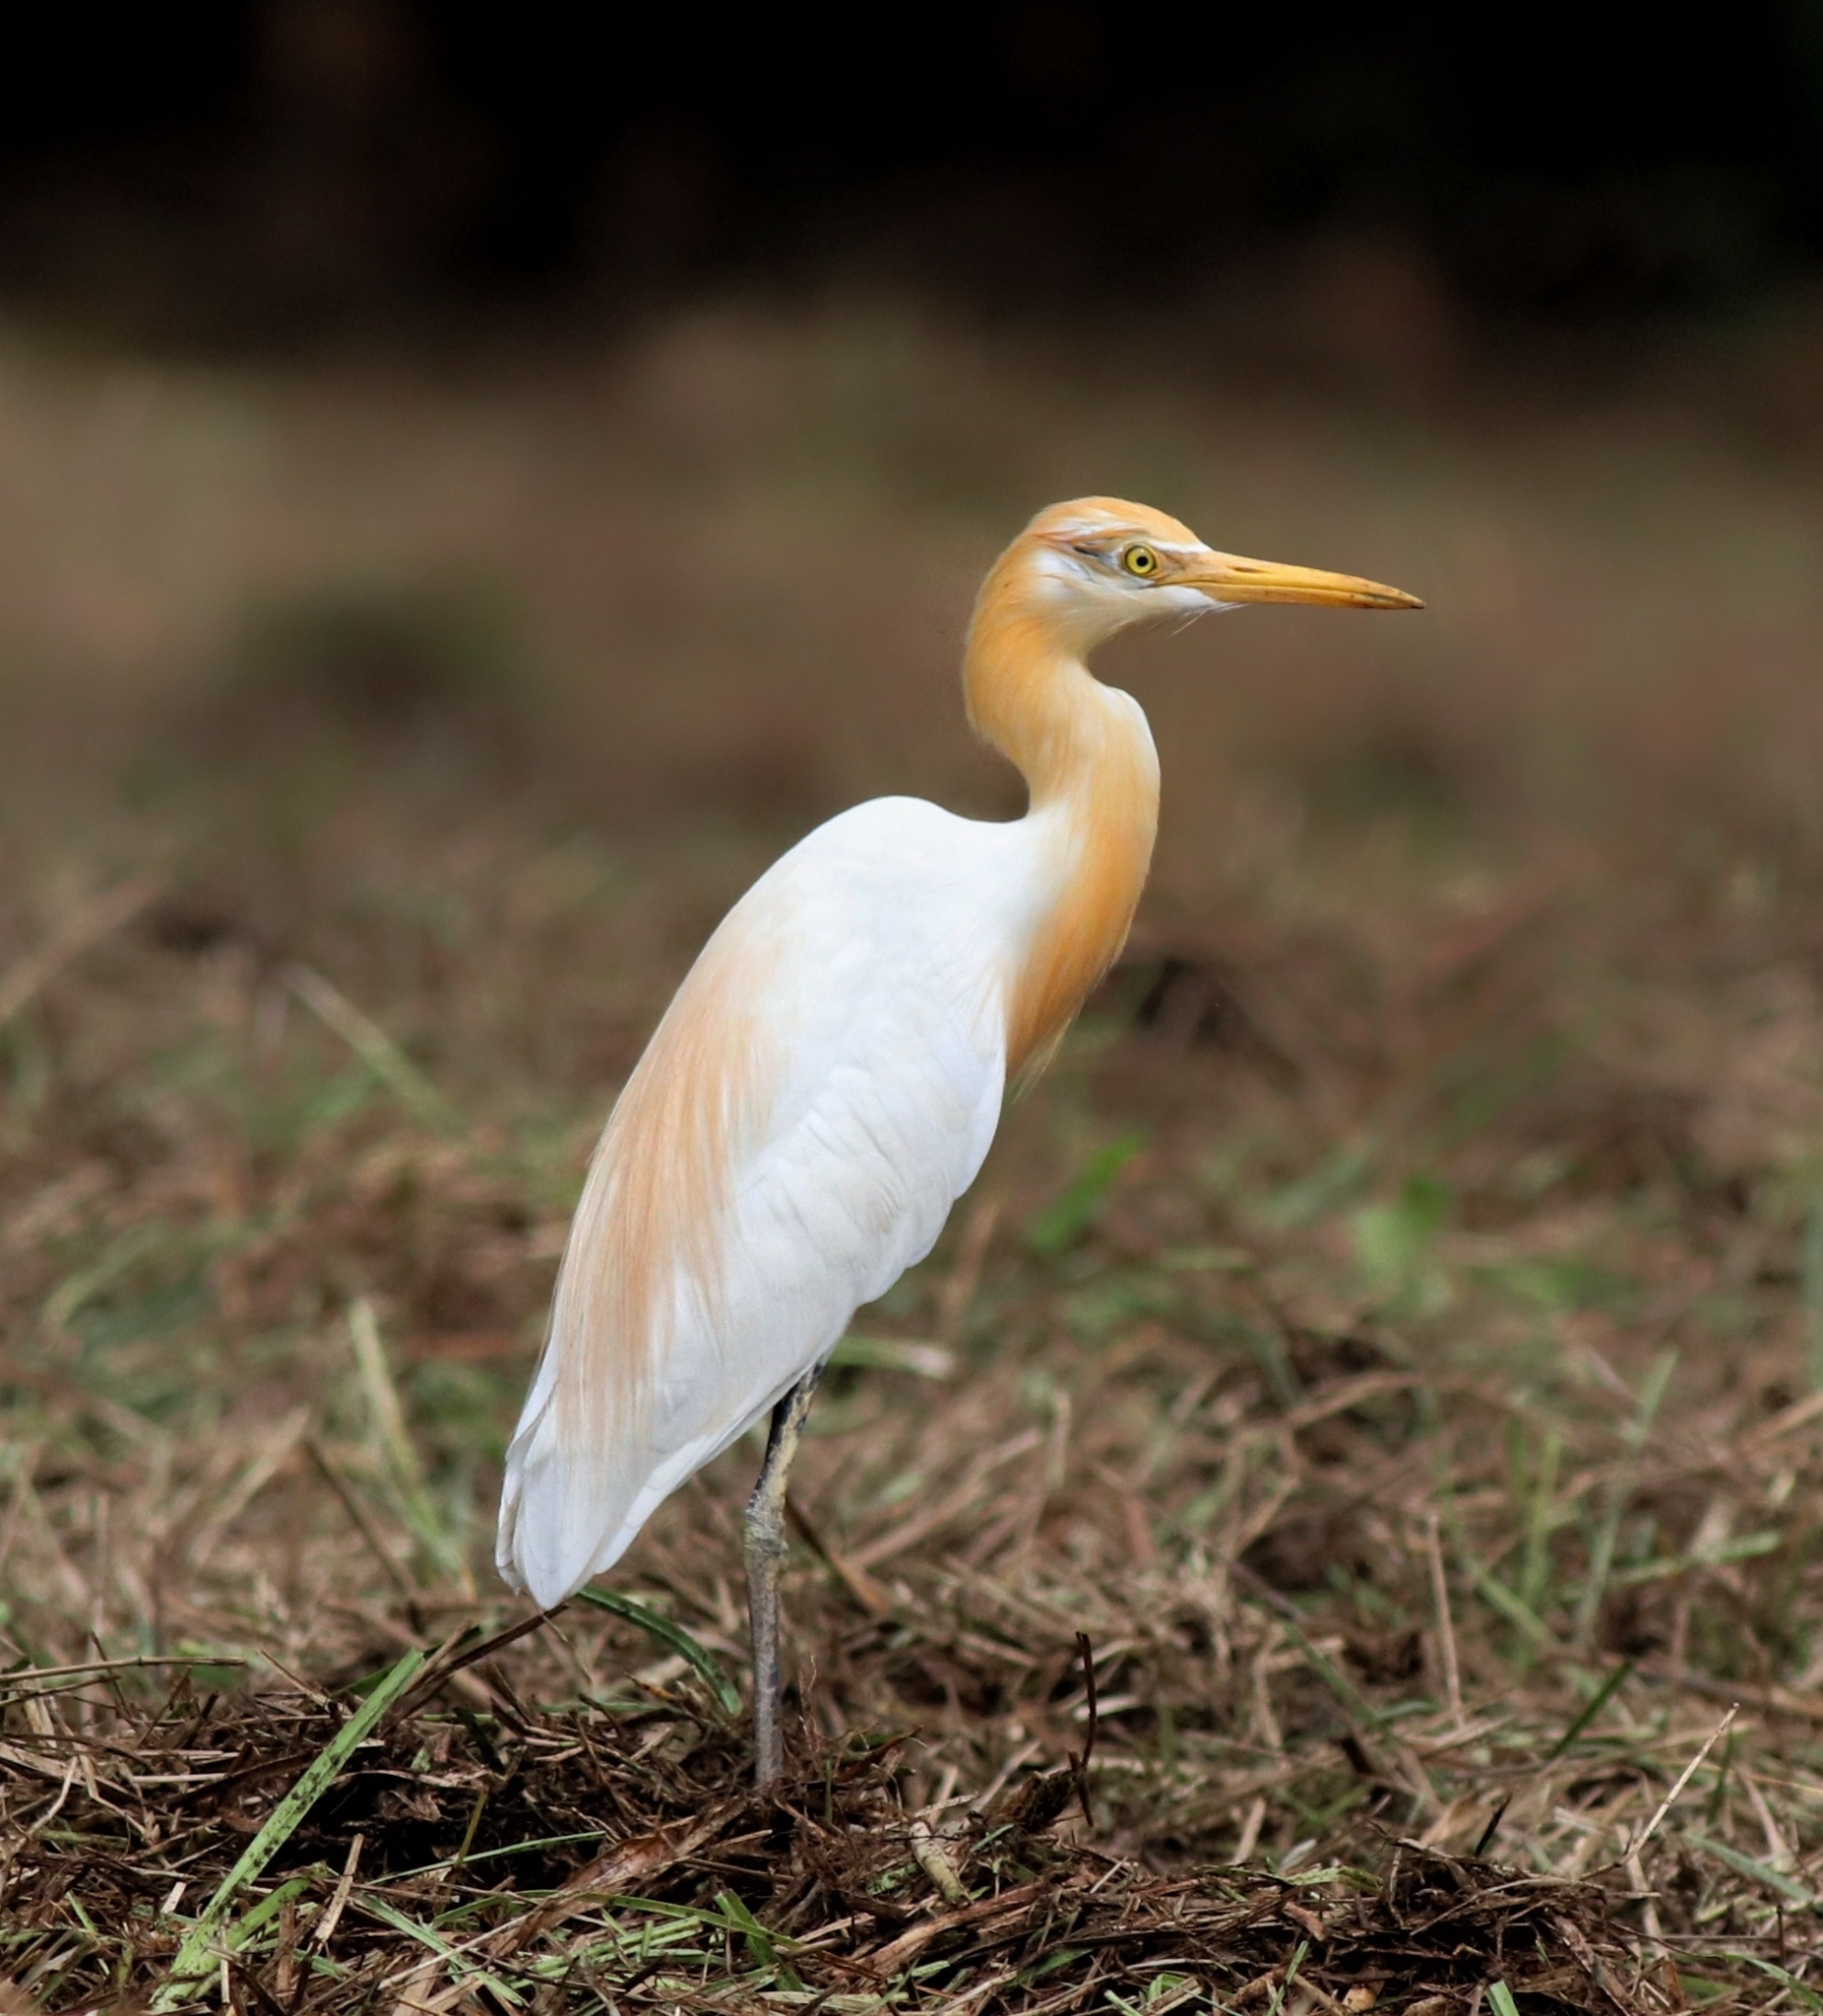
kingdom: Animalia
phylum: Chordata
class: Aves
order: Pelecaniformes
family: Ardeidae
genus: Bubulcus
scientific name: Bubulcus coromandus
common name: Eastern cattle egret
